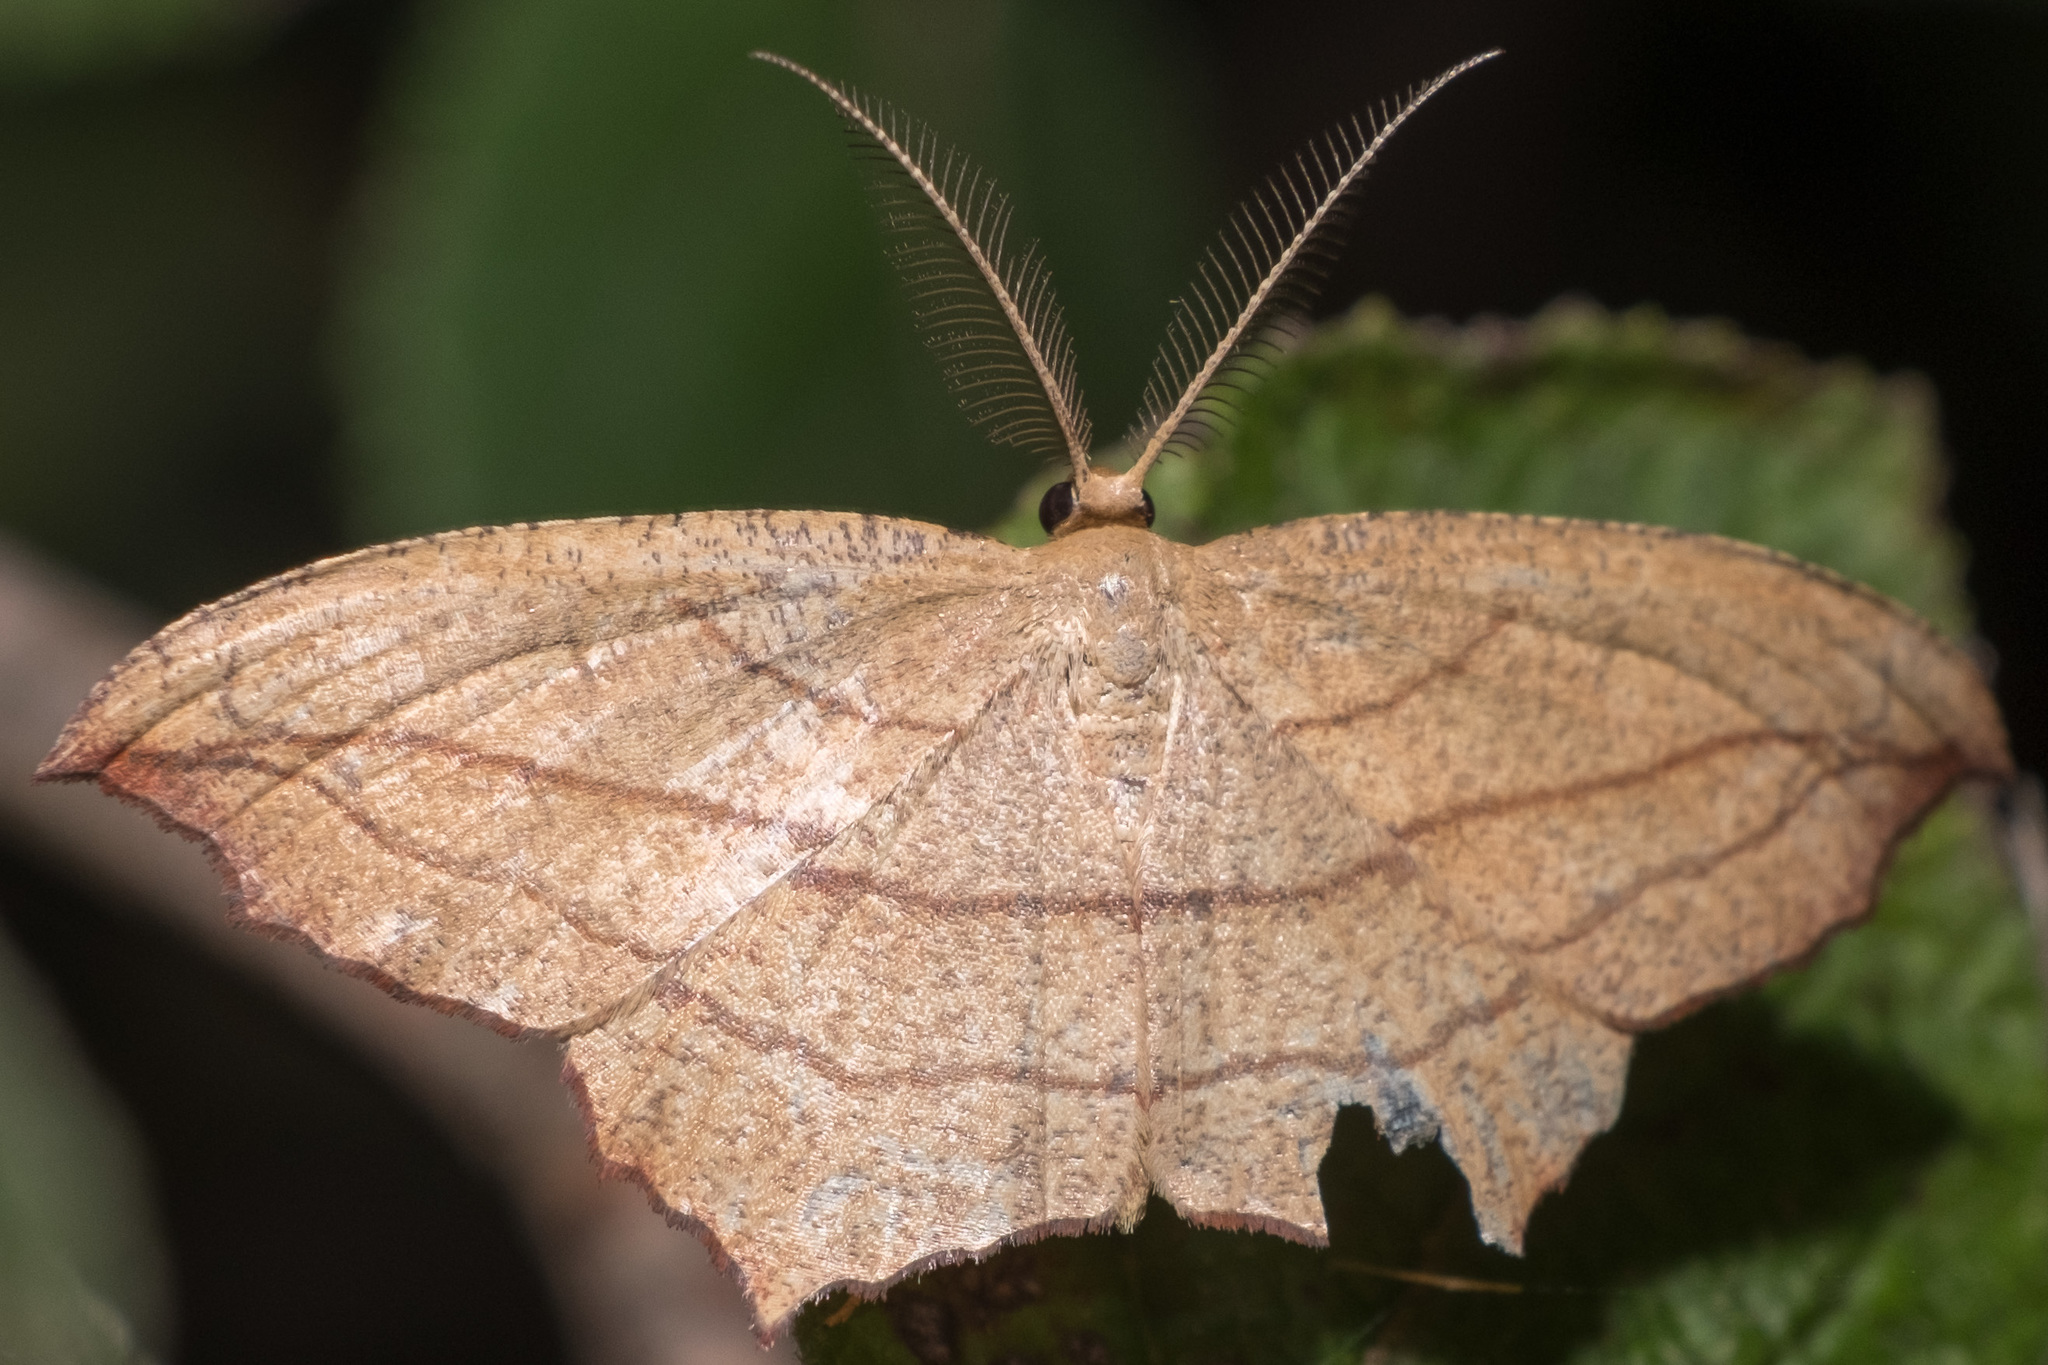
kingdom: Animalia
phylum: Arthropoda
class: Insecta
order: Lepidoptera
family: Geometridae
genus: Timandra
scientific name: Timandra amaturaria
